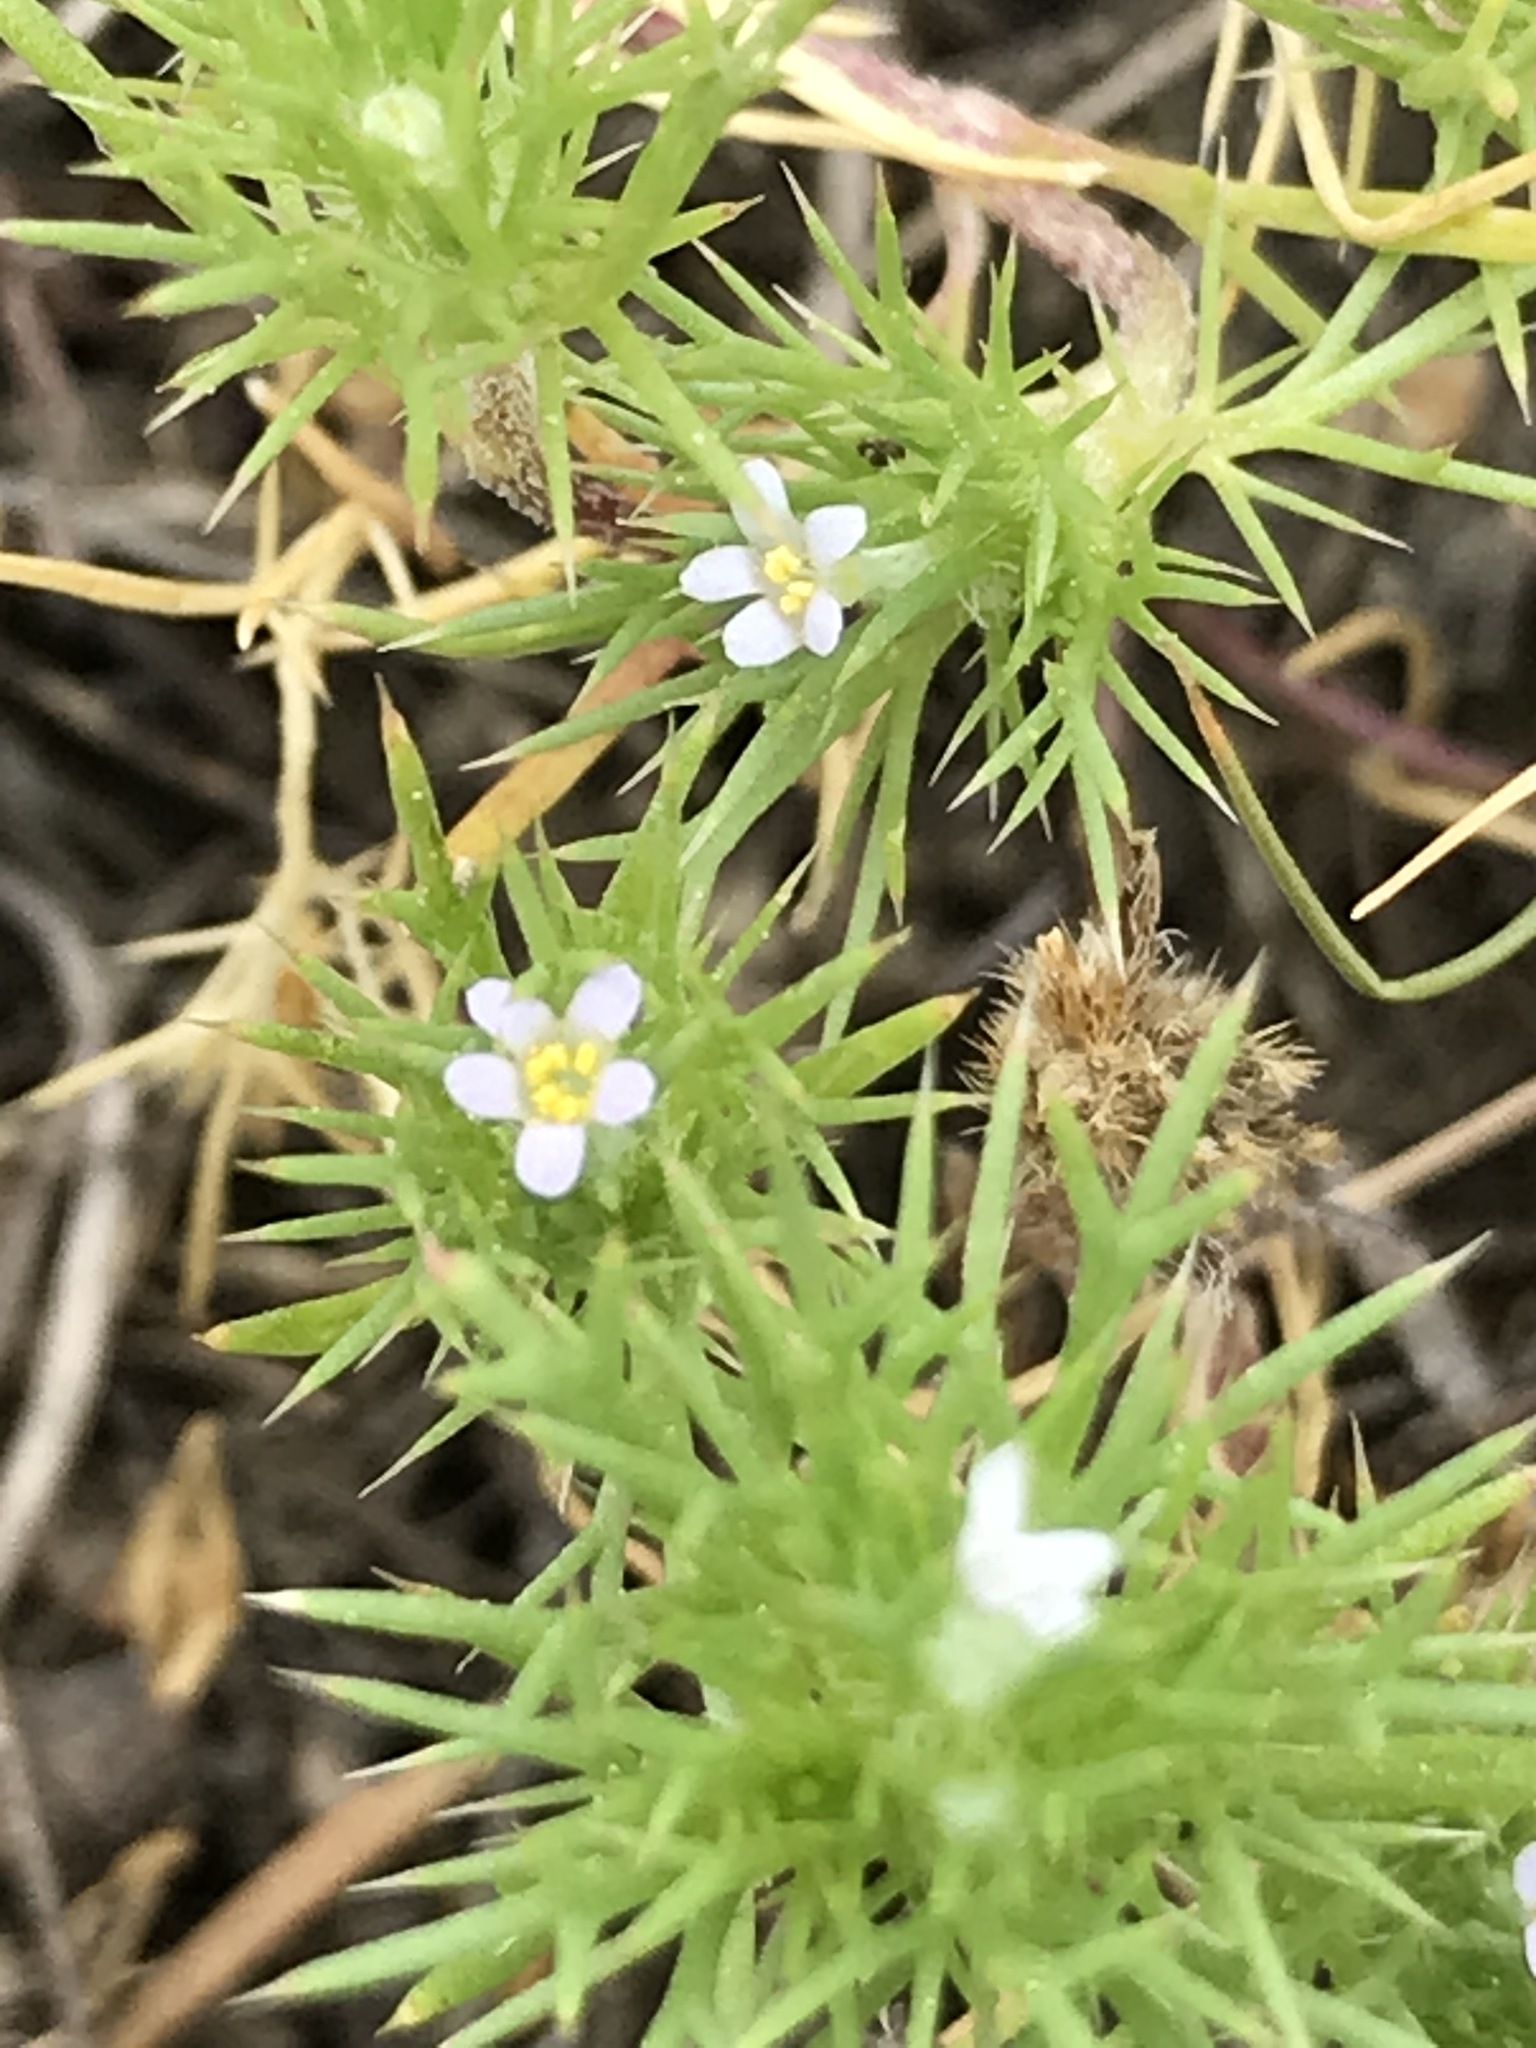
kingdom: Plantae
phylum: Tracheophyta
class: Magnoliopsida
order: Ericales
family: Polemoniaceae
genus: Navarretia
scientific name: Navarretia saximontana
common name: Rocky mountain navarretia
